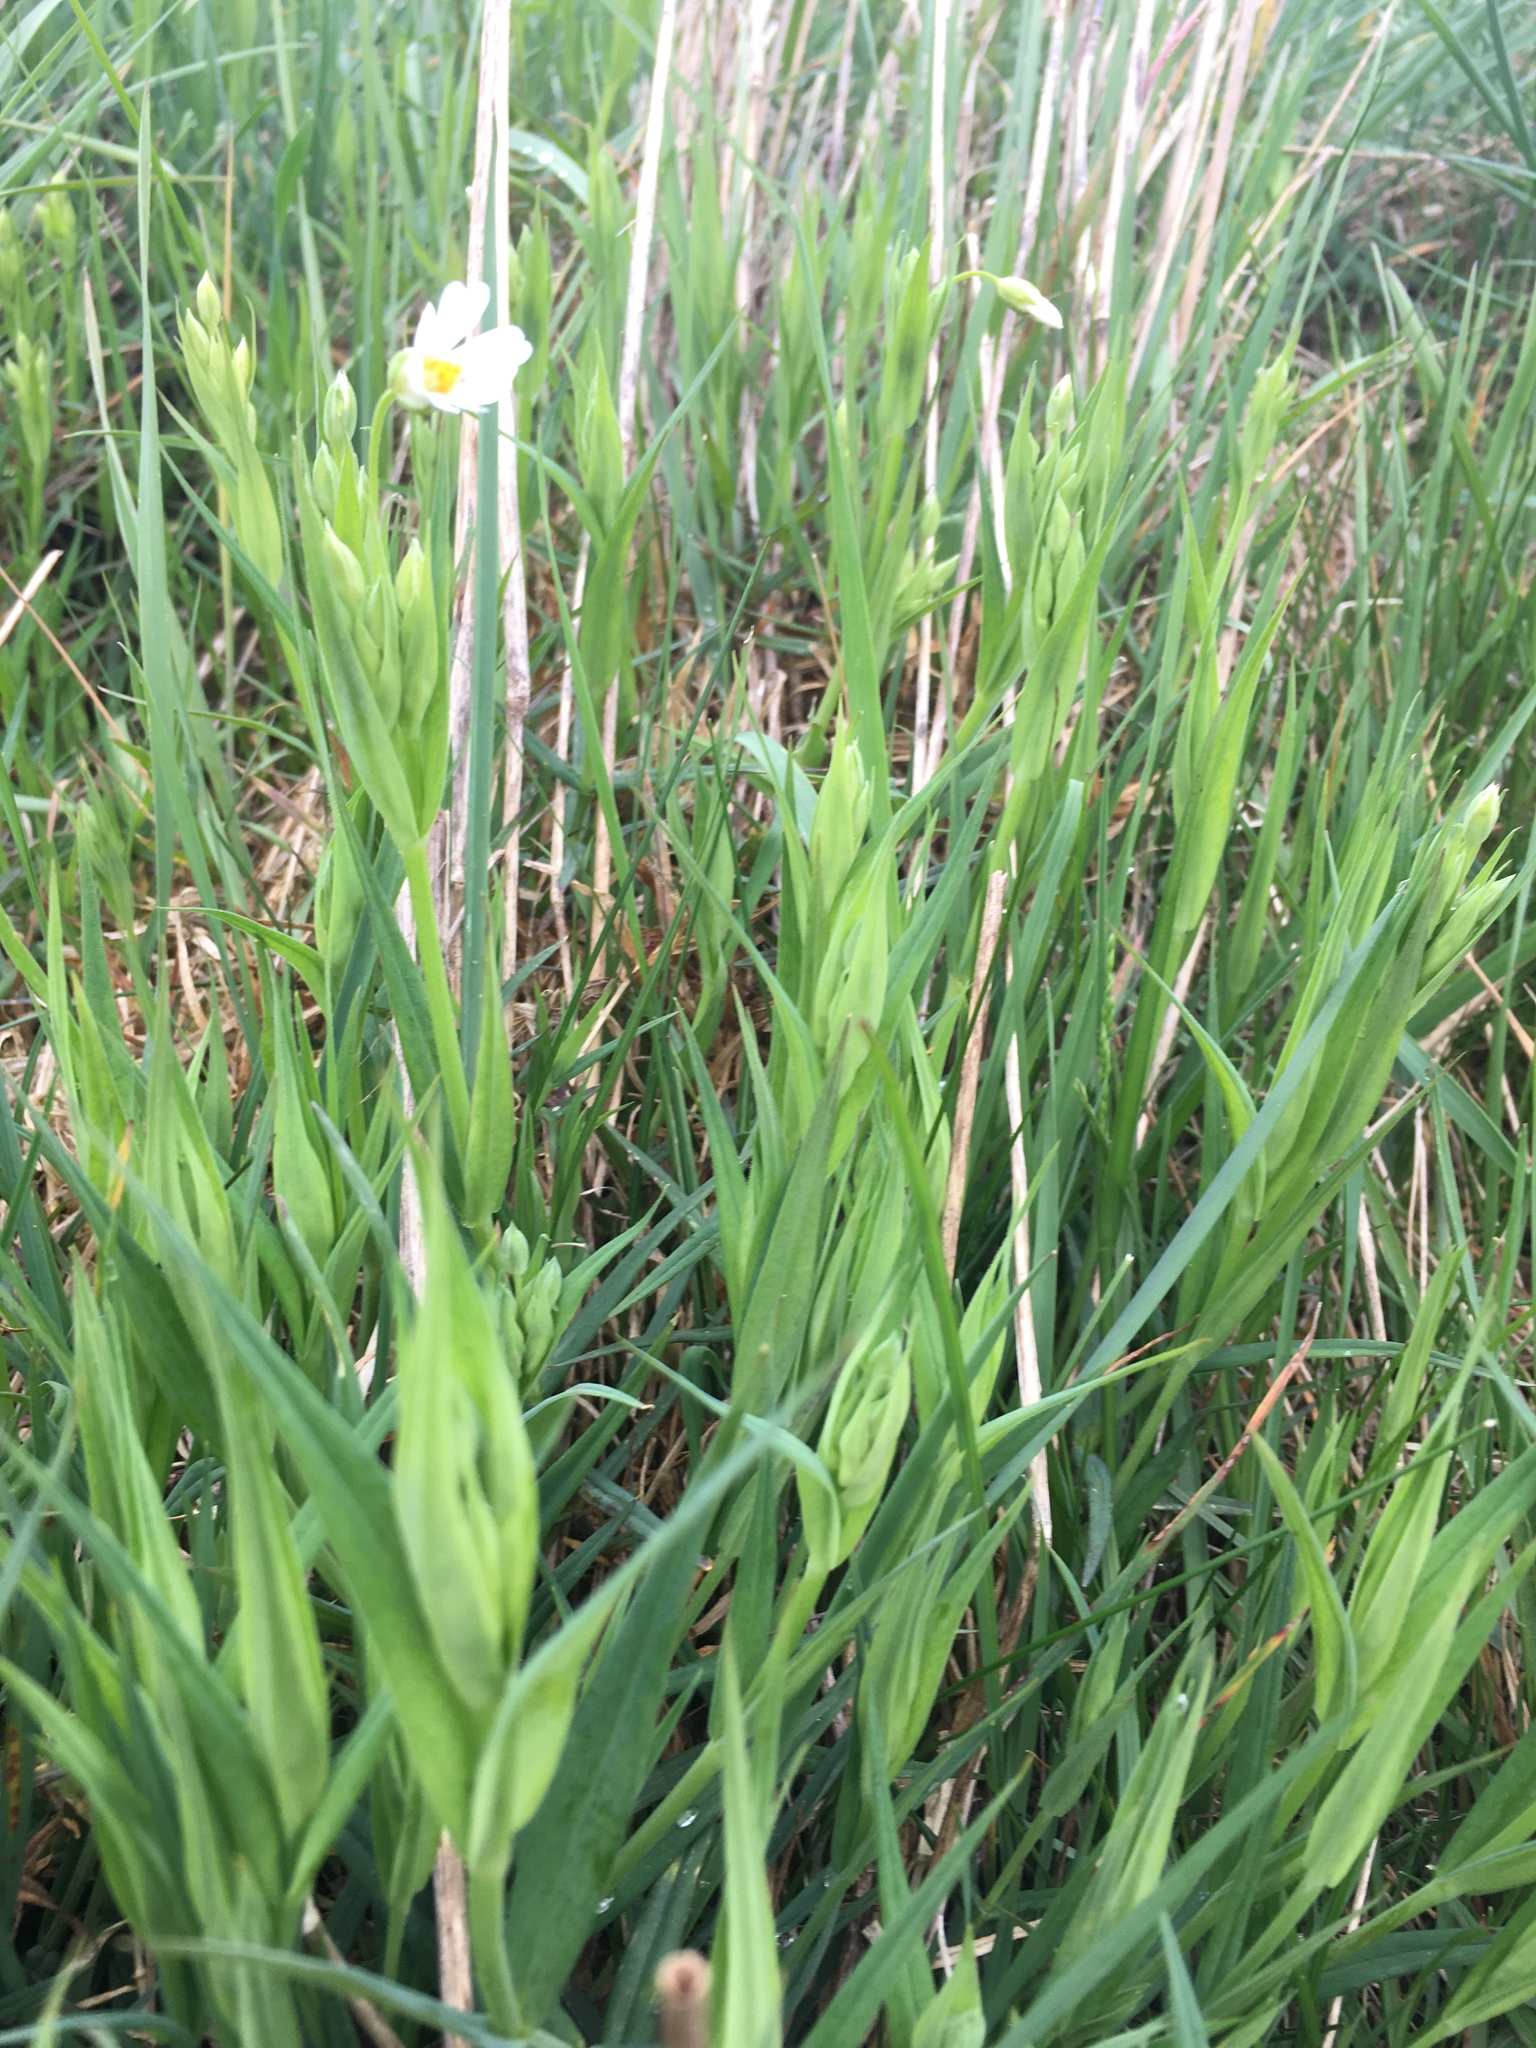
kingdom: Plantae
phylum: Tracheophyta
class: Magnoliopsida
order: Caryophyllales
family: Caryophyllaceae
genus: Rabelera
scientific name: Rabelera holostea
